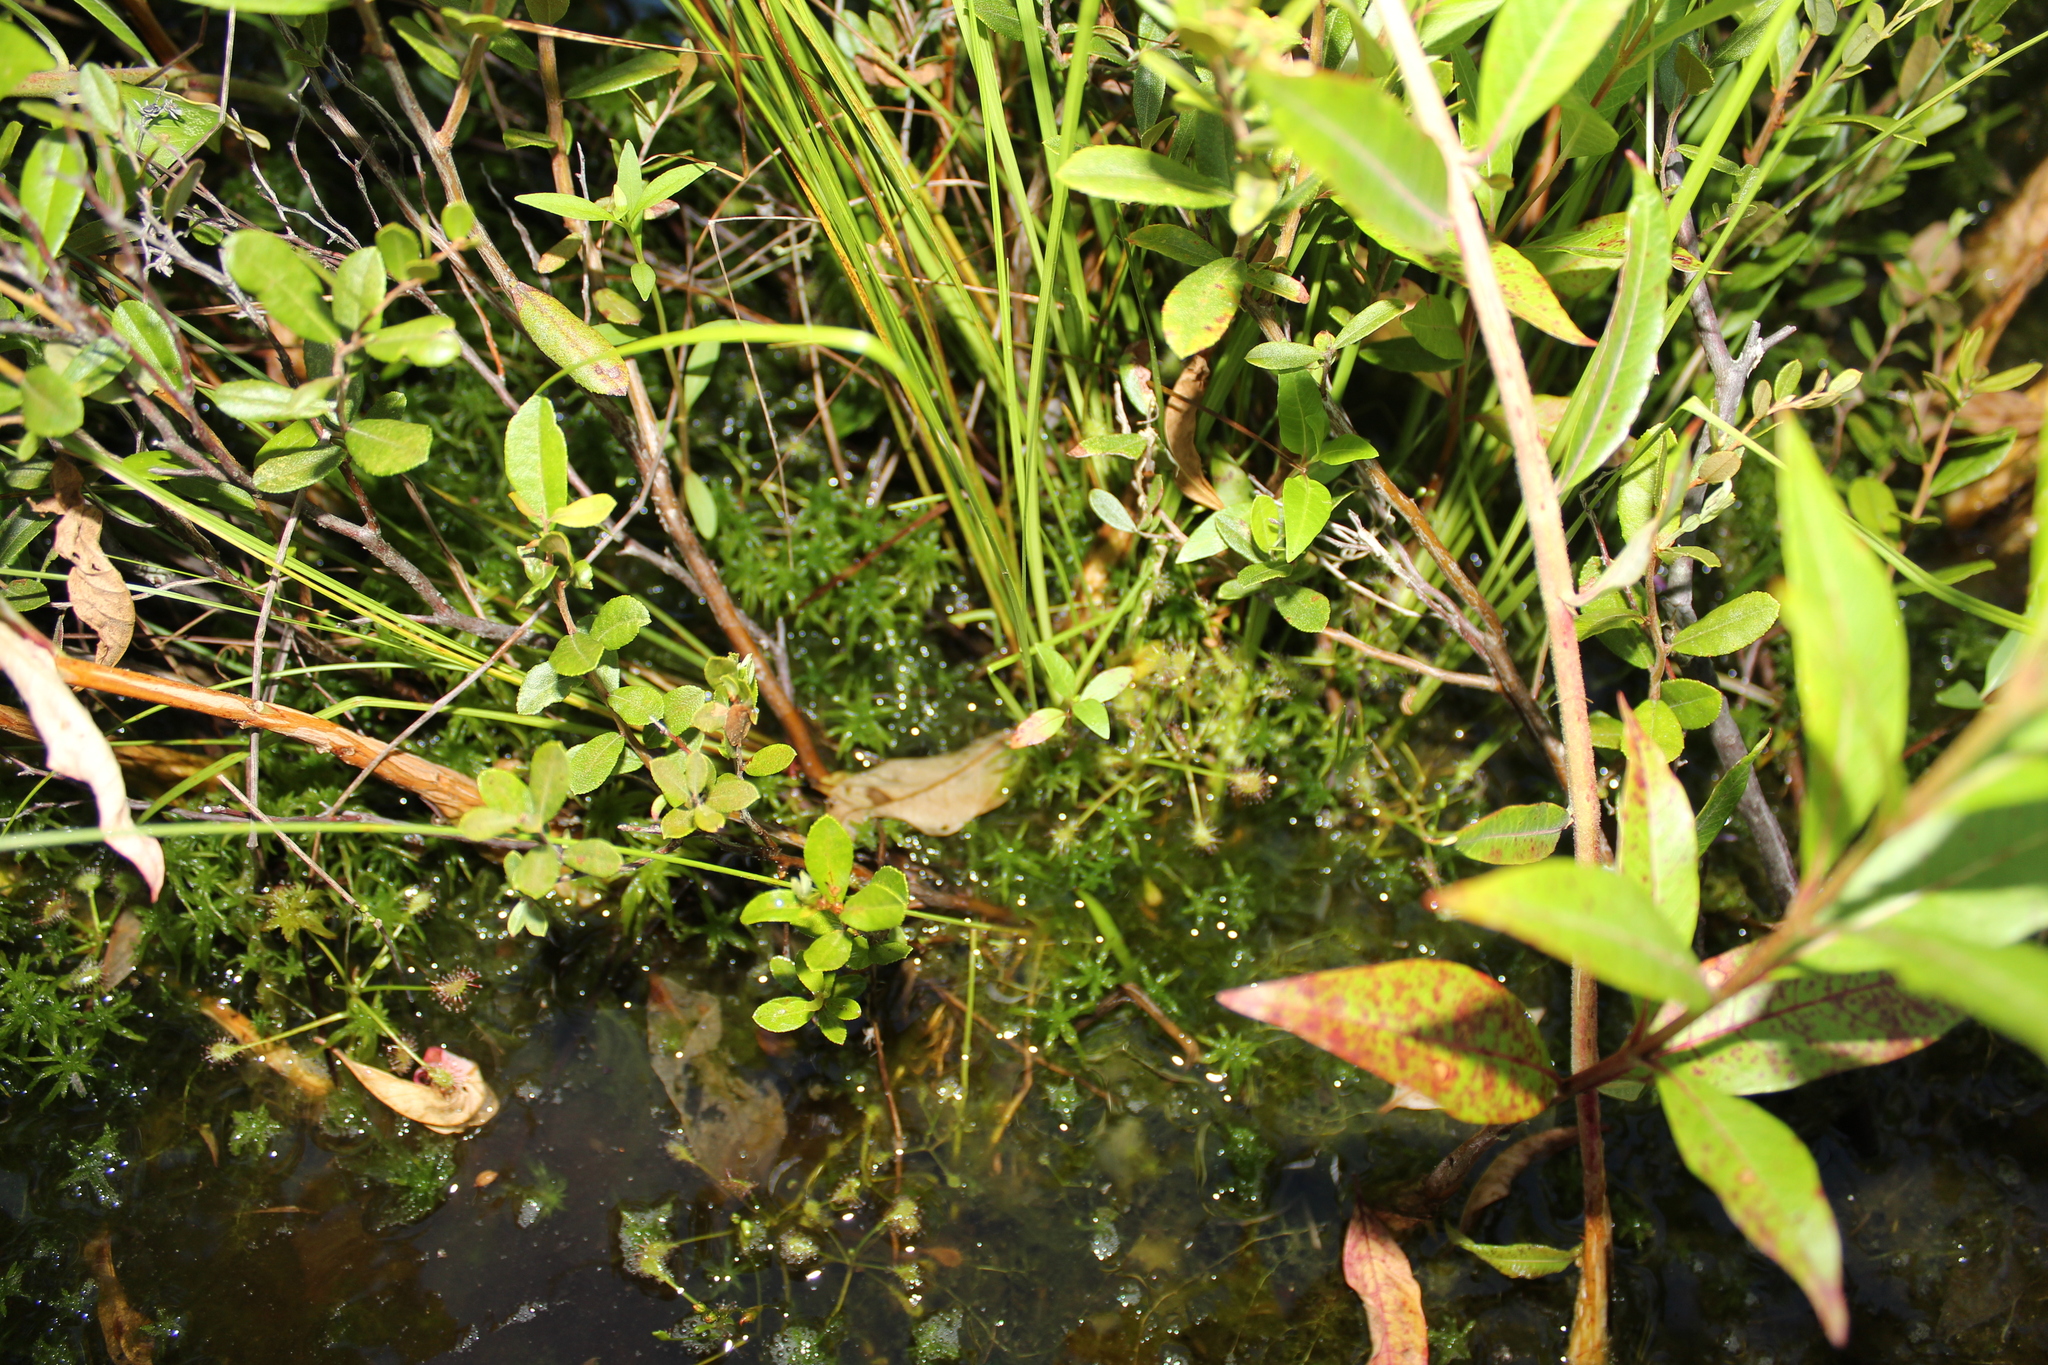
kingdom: Plantae
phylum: Tracheophyta
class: Magnoliopsida
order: Caryophyllales
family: Droseraceae
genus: Drosera
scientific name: Drosera intermedia
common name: Oblong-leaved sundew
